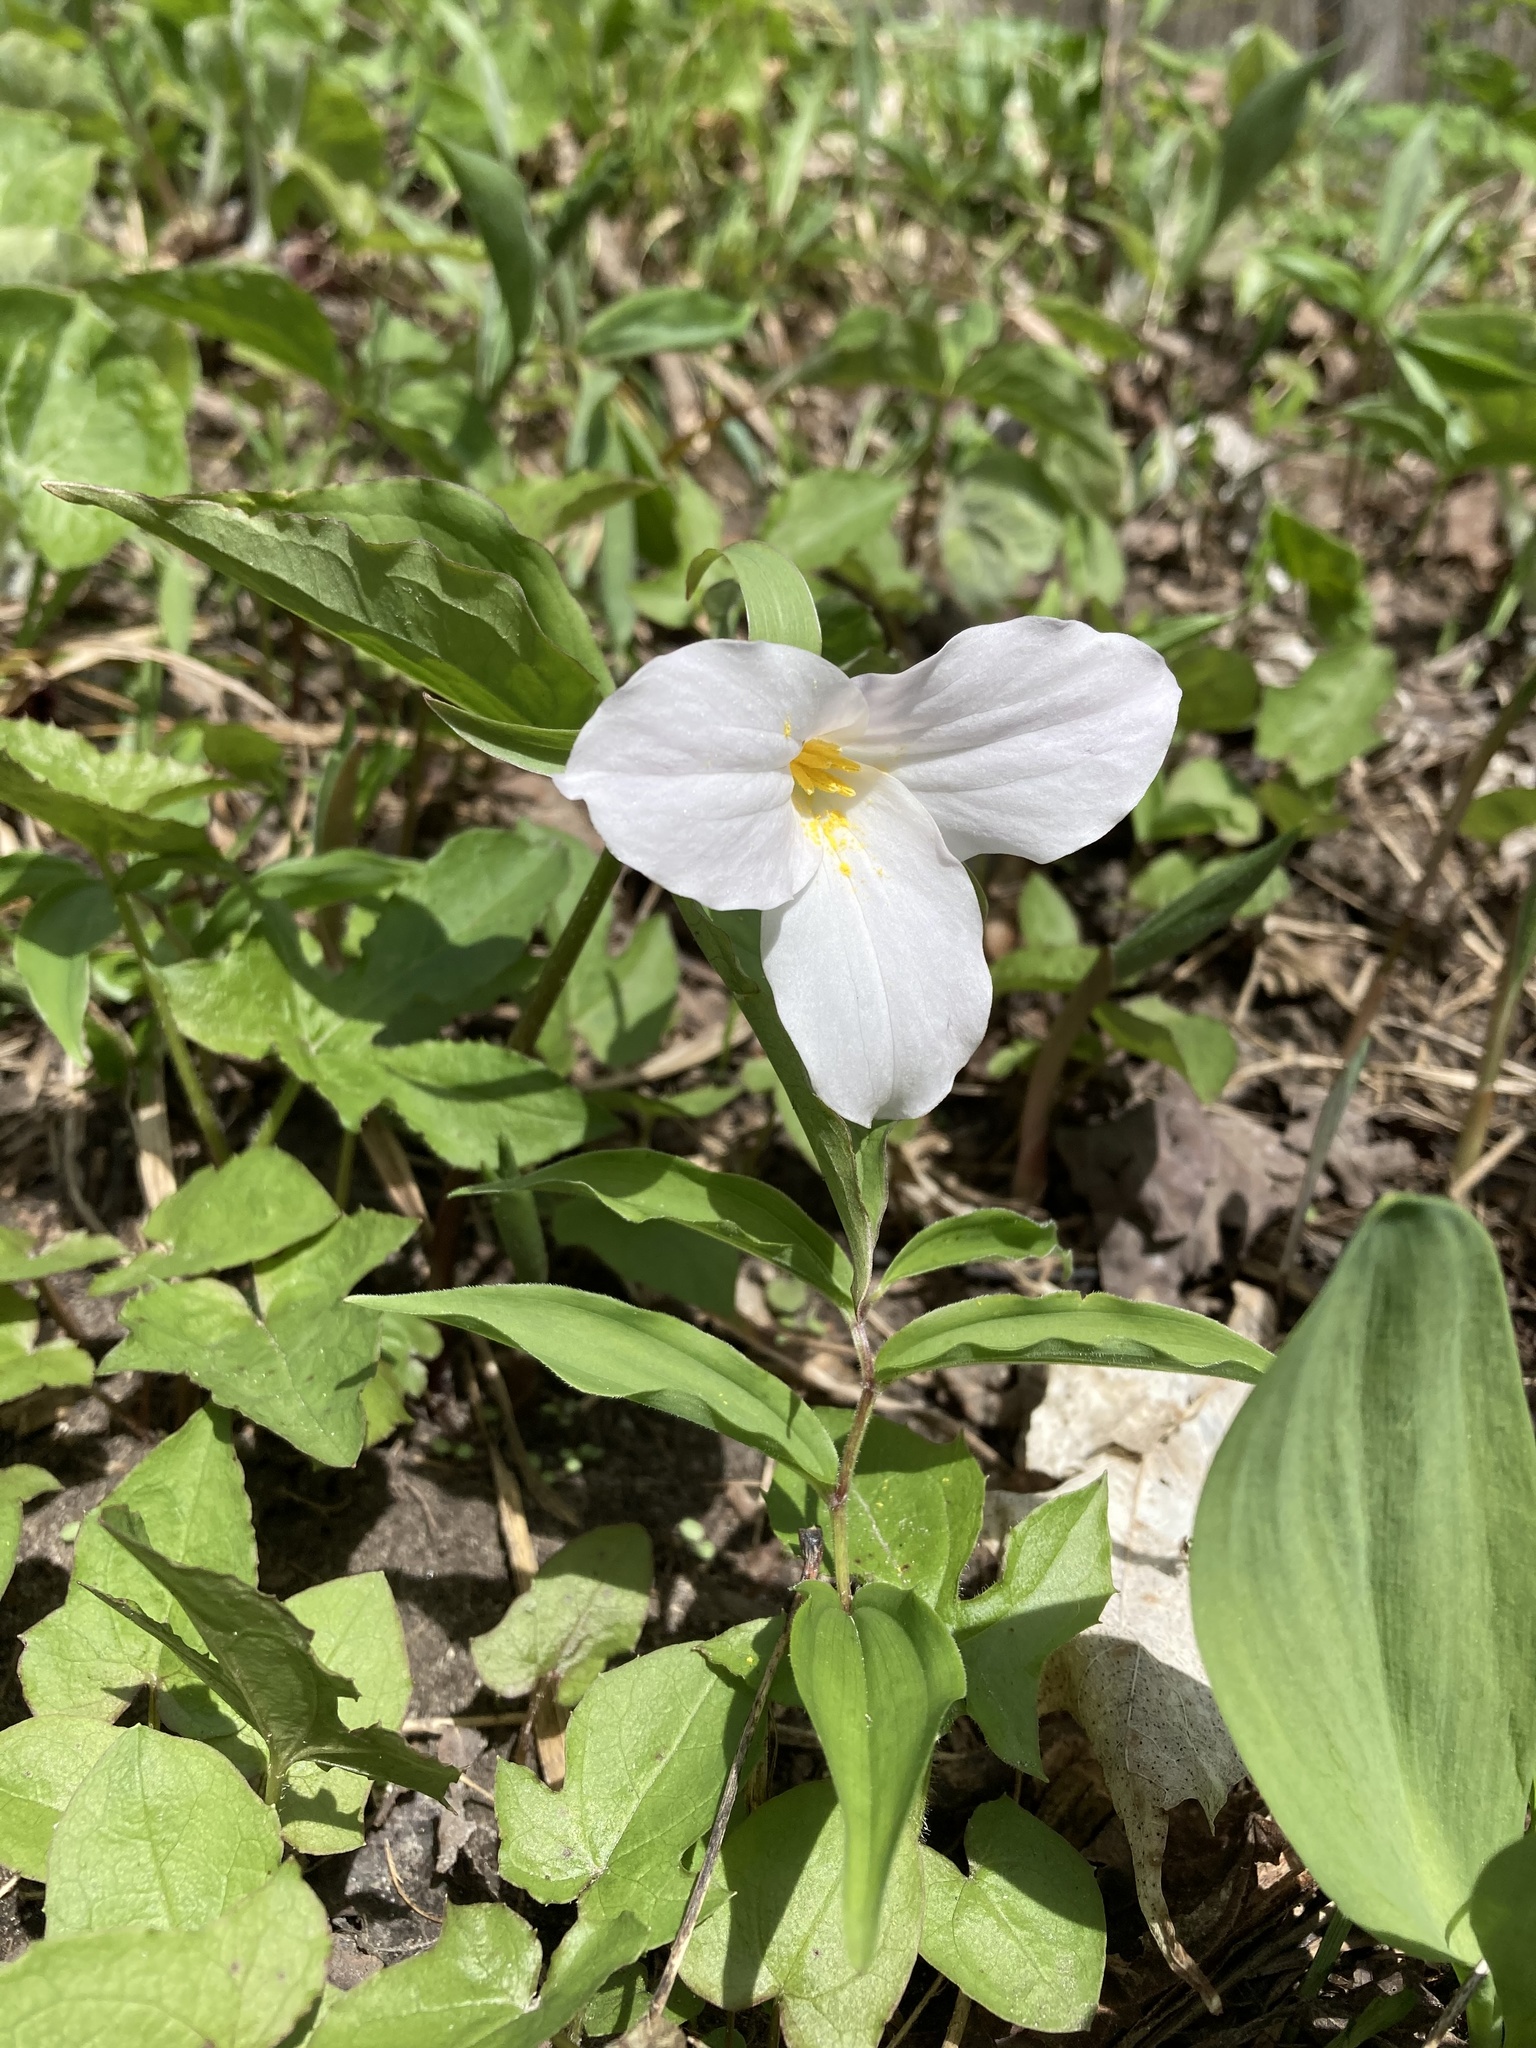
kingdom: Plantae
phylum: Tracheophyta
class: Liliopsida
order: Liliales
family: Melanthiaceae
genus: Trillium
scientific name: Trillium grandiflorum
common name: Great white trillium
